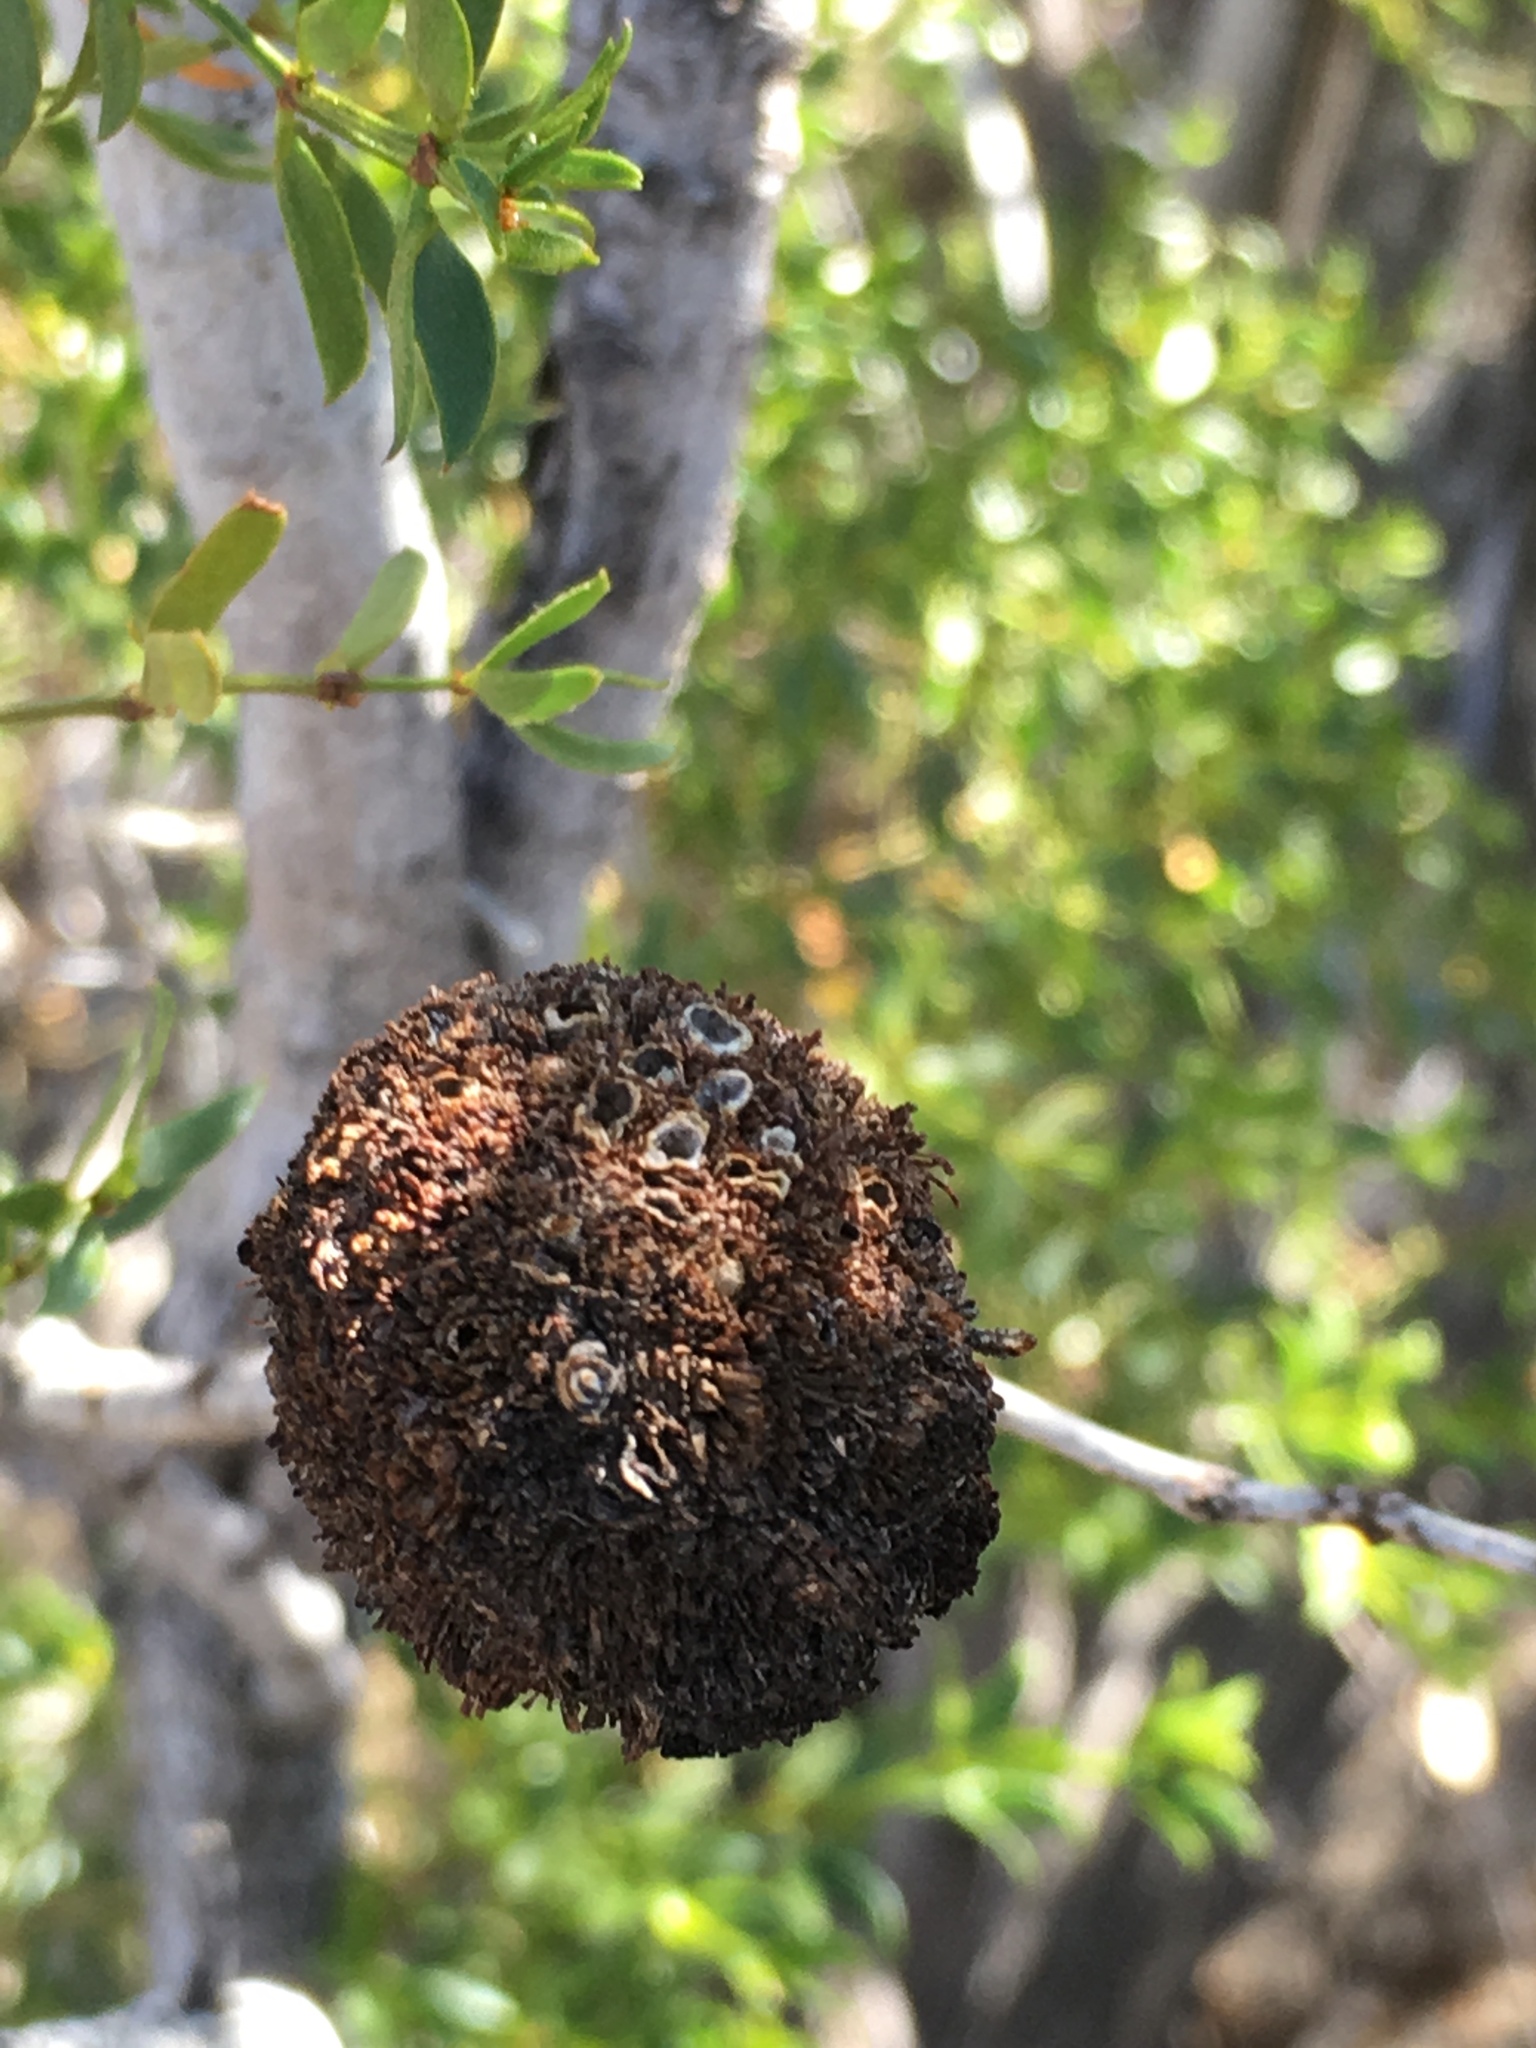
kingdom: Animalia
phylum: Arthropoda
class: Insecta
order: Diptera
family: Cecidomyiidae
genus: Asphondylia
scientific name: Asphondylia auripila
